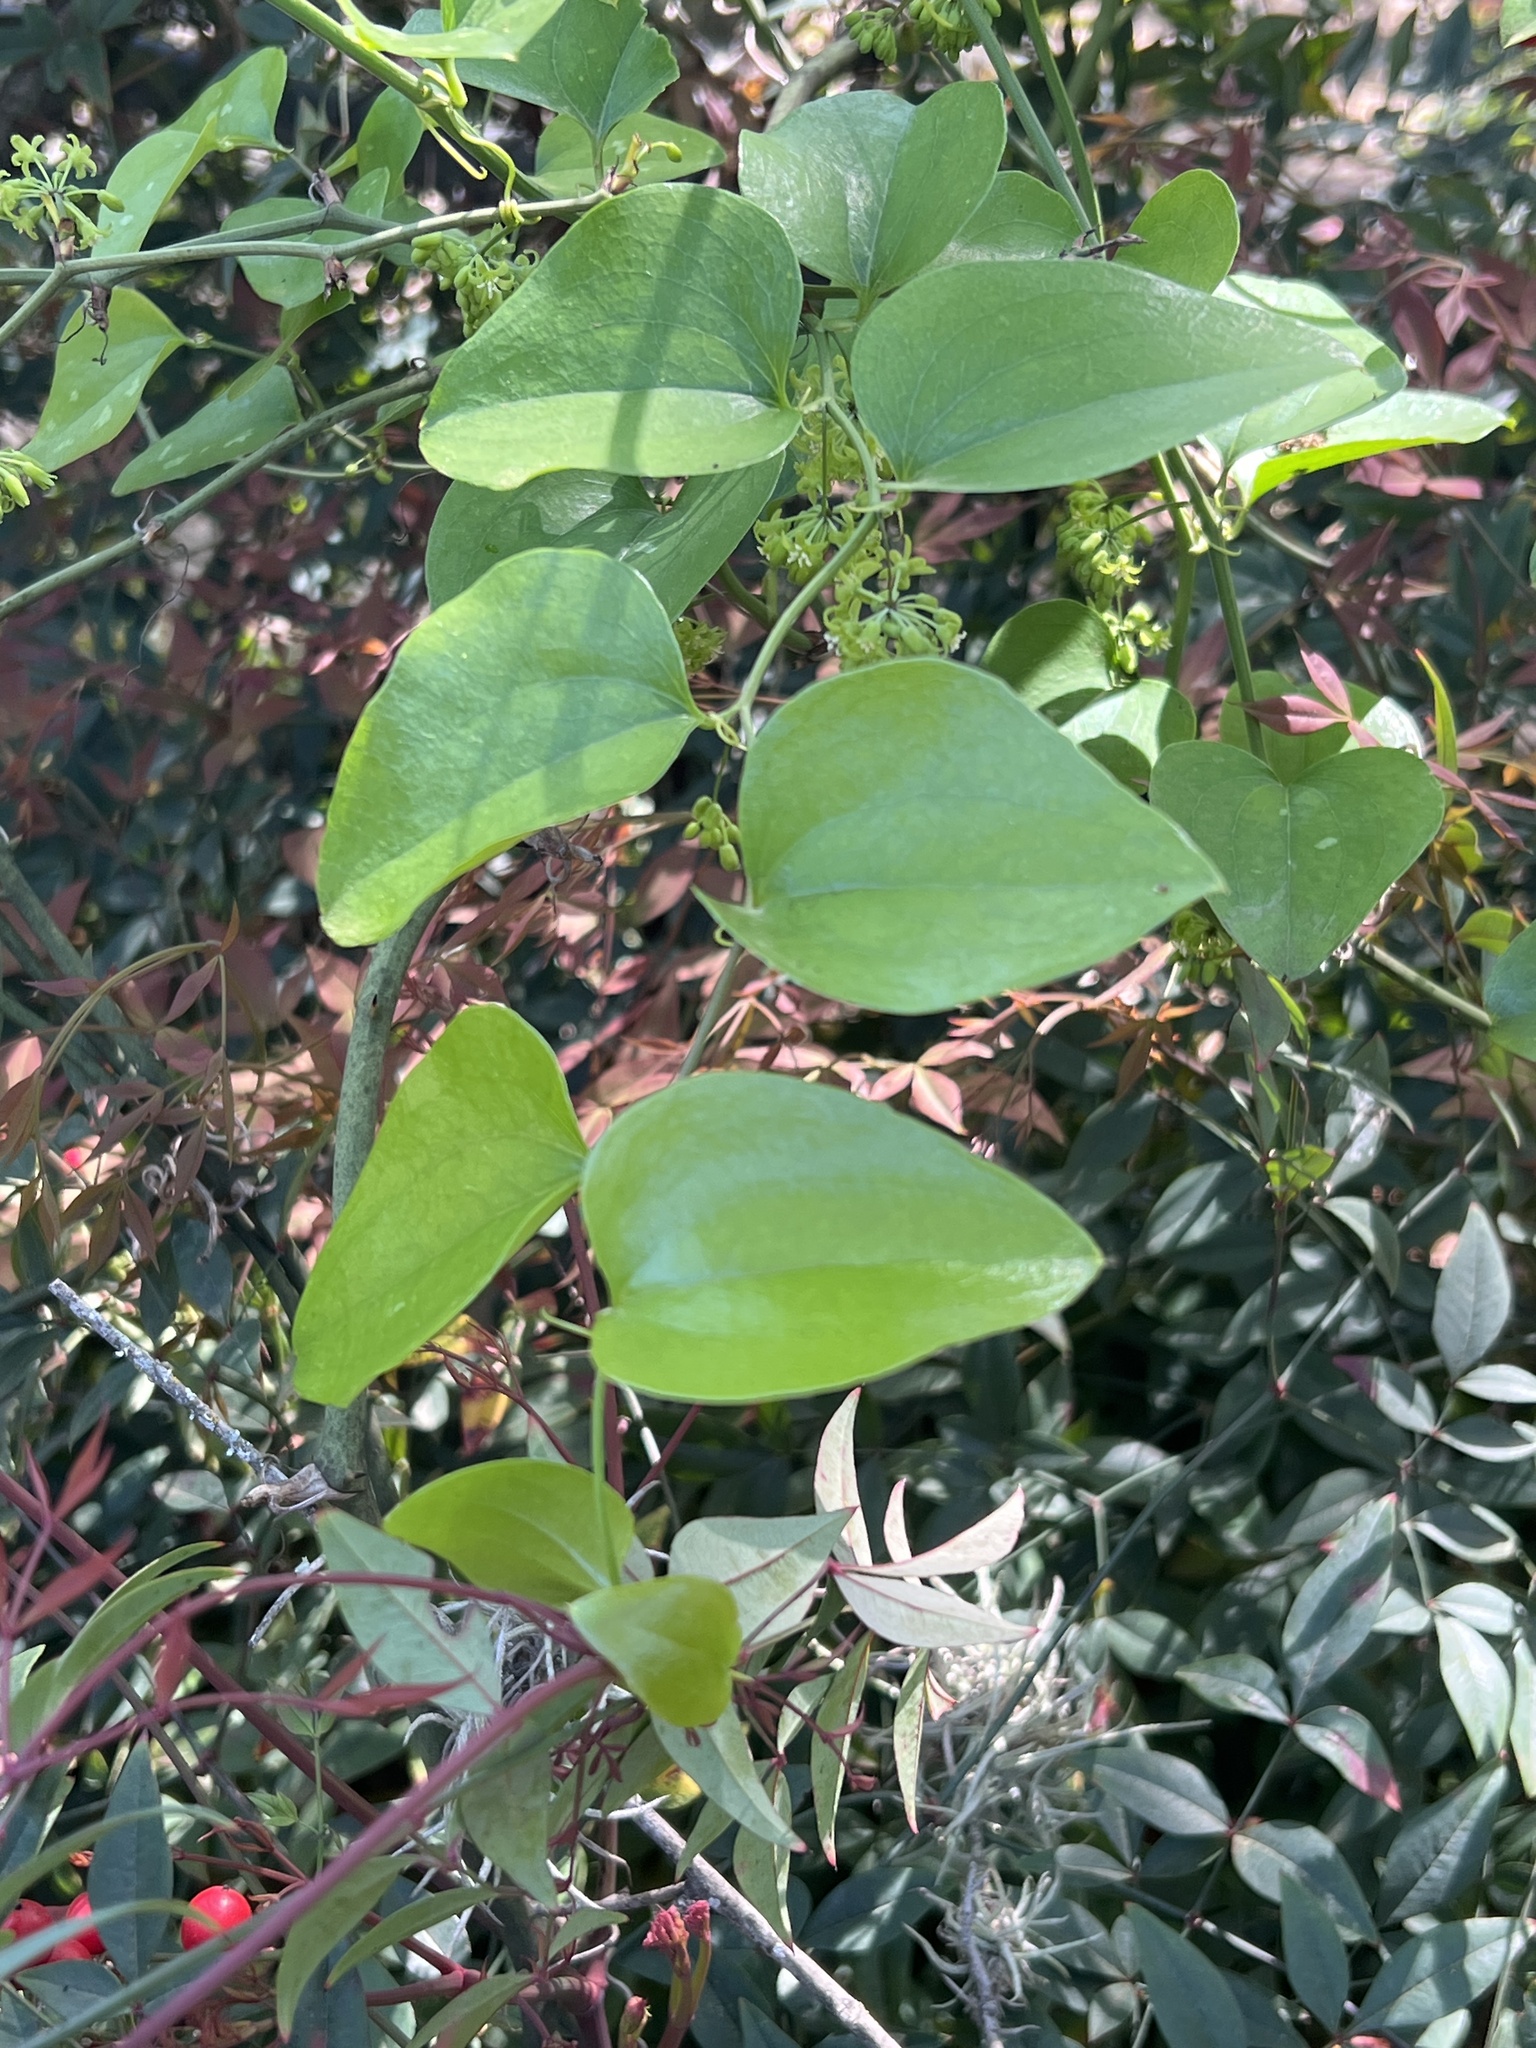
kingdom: Plantae
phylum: Tracheophyta
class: Liliopsida
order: Liliales
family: Smilacaceae
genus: Smilax
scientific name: Smilax bona-nox
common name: Catbrier
